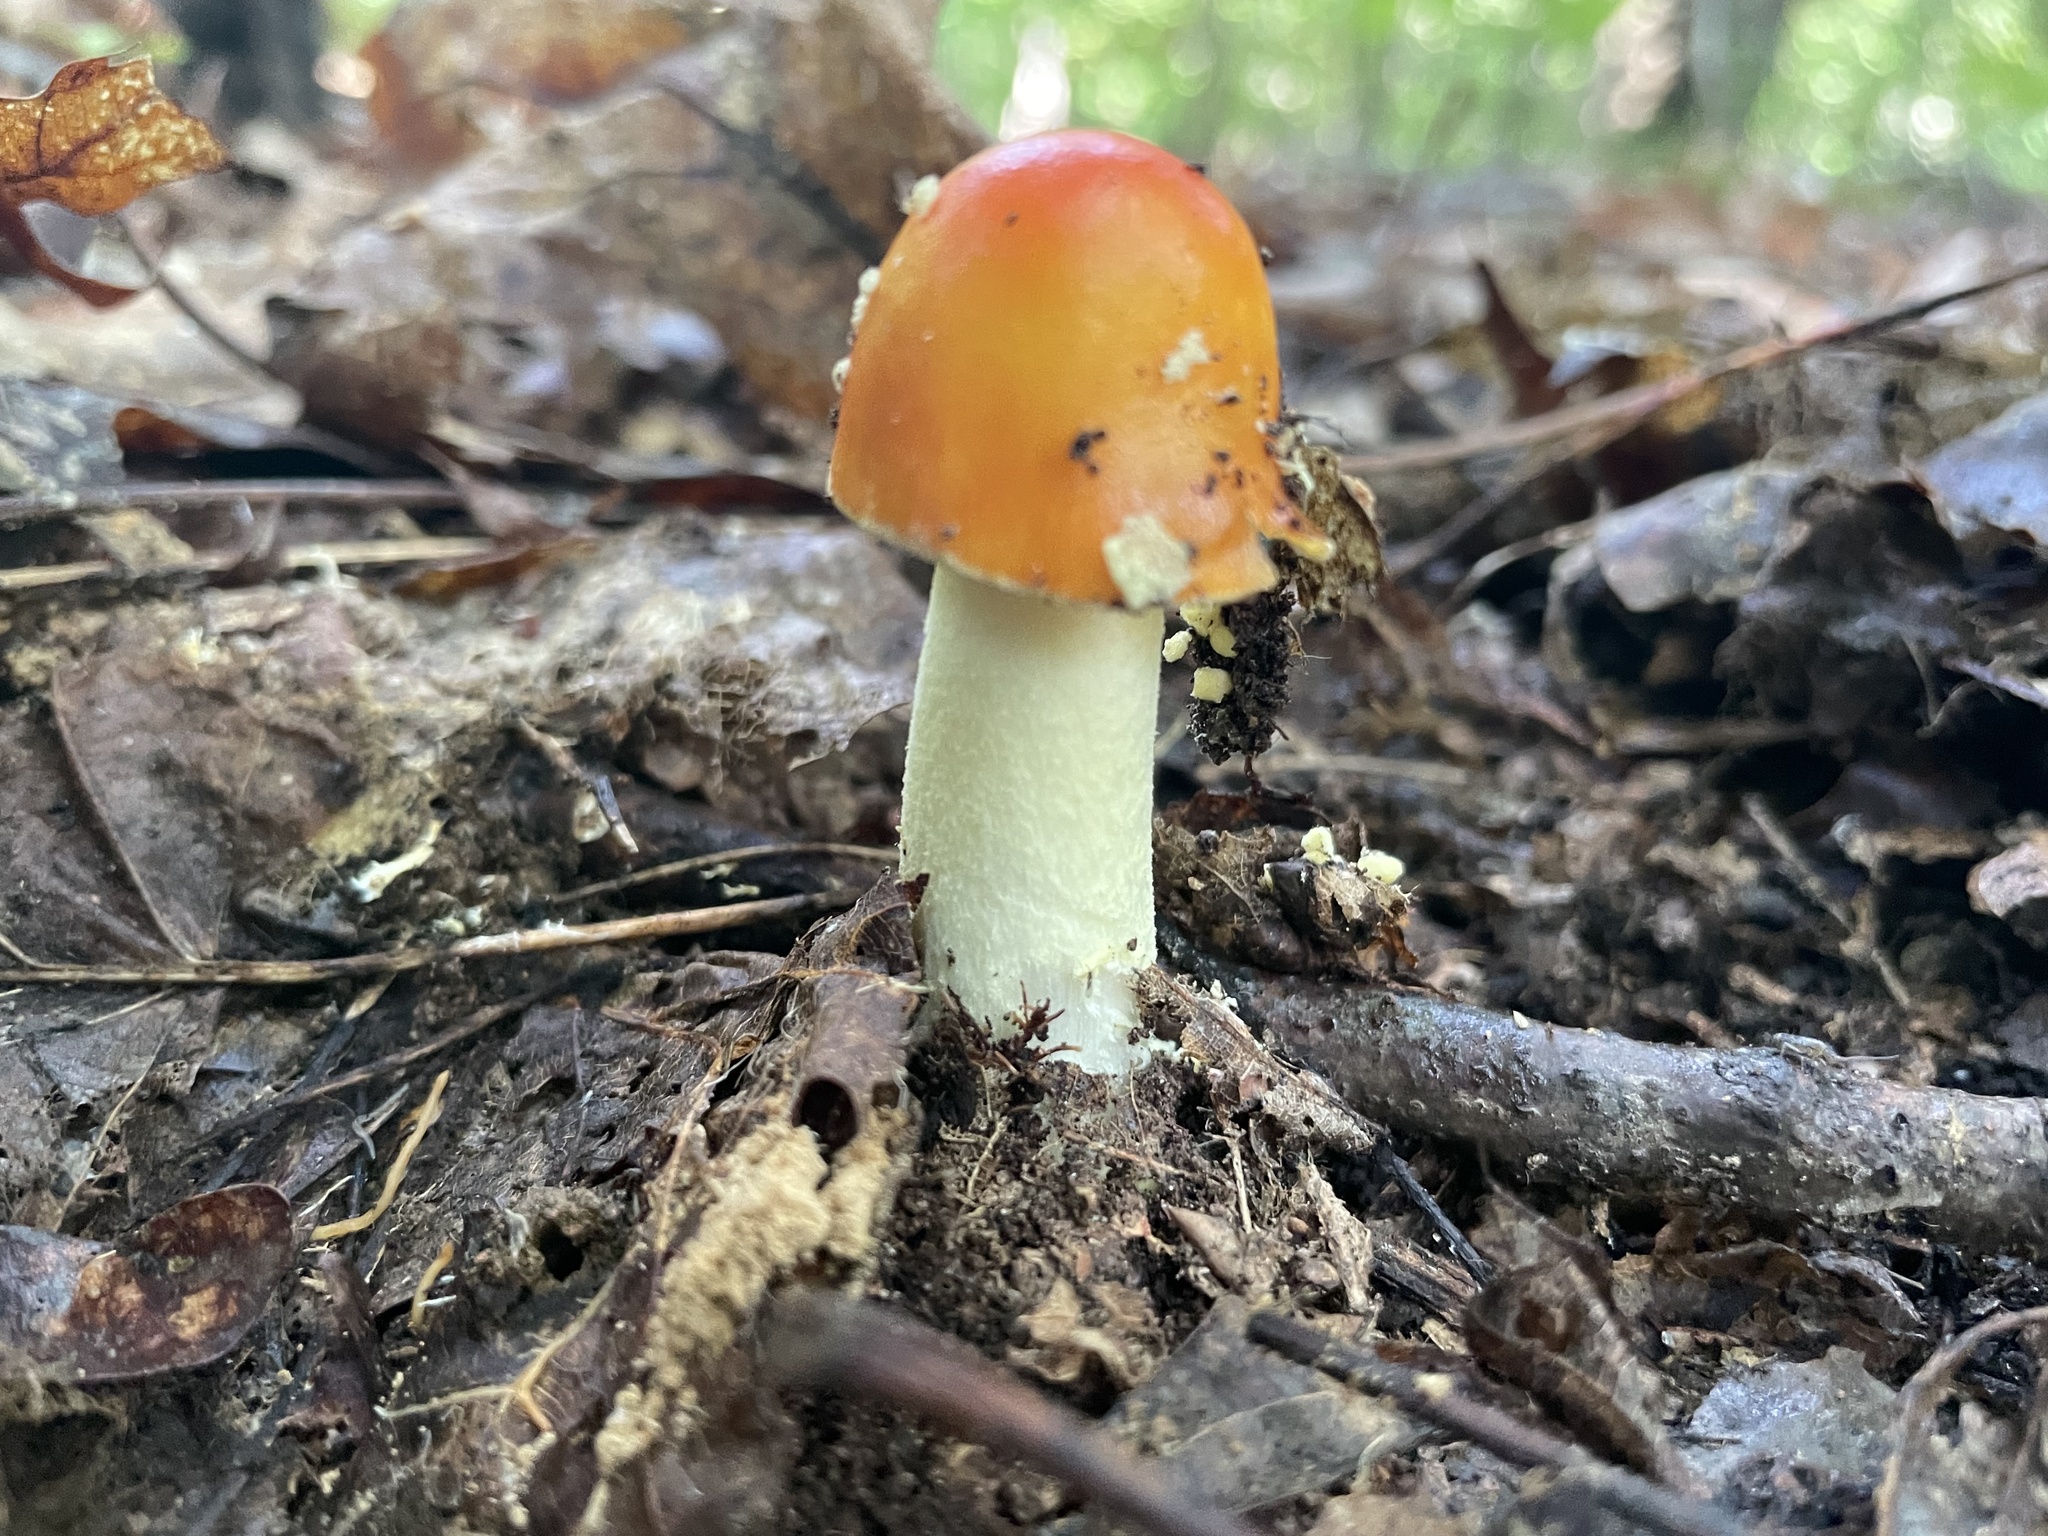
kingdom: Fungi
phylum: Basidiomycota
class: Agaricomycetes
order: Agaricales
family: Amanitaceae
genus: Amanita
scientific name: Amanita parcivolvata
